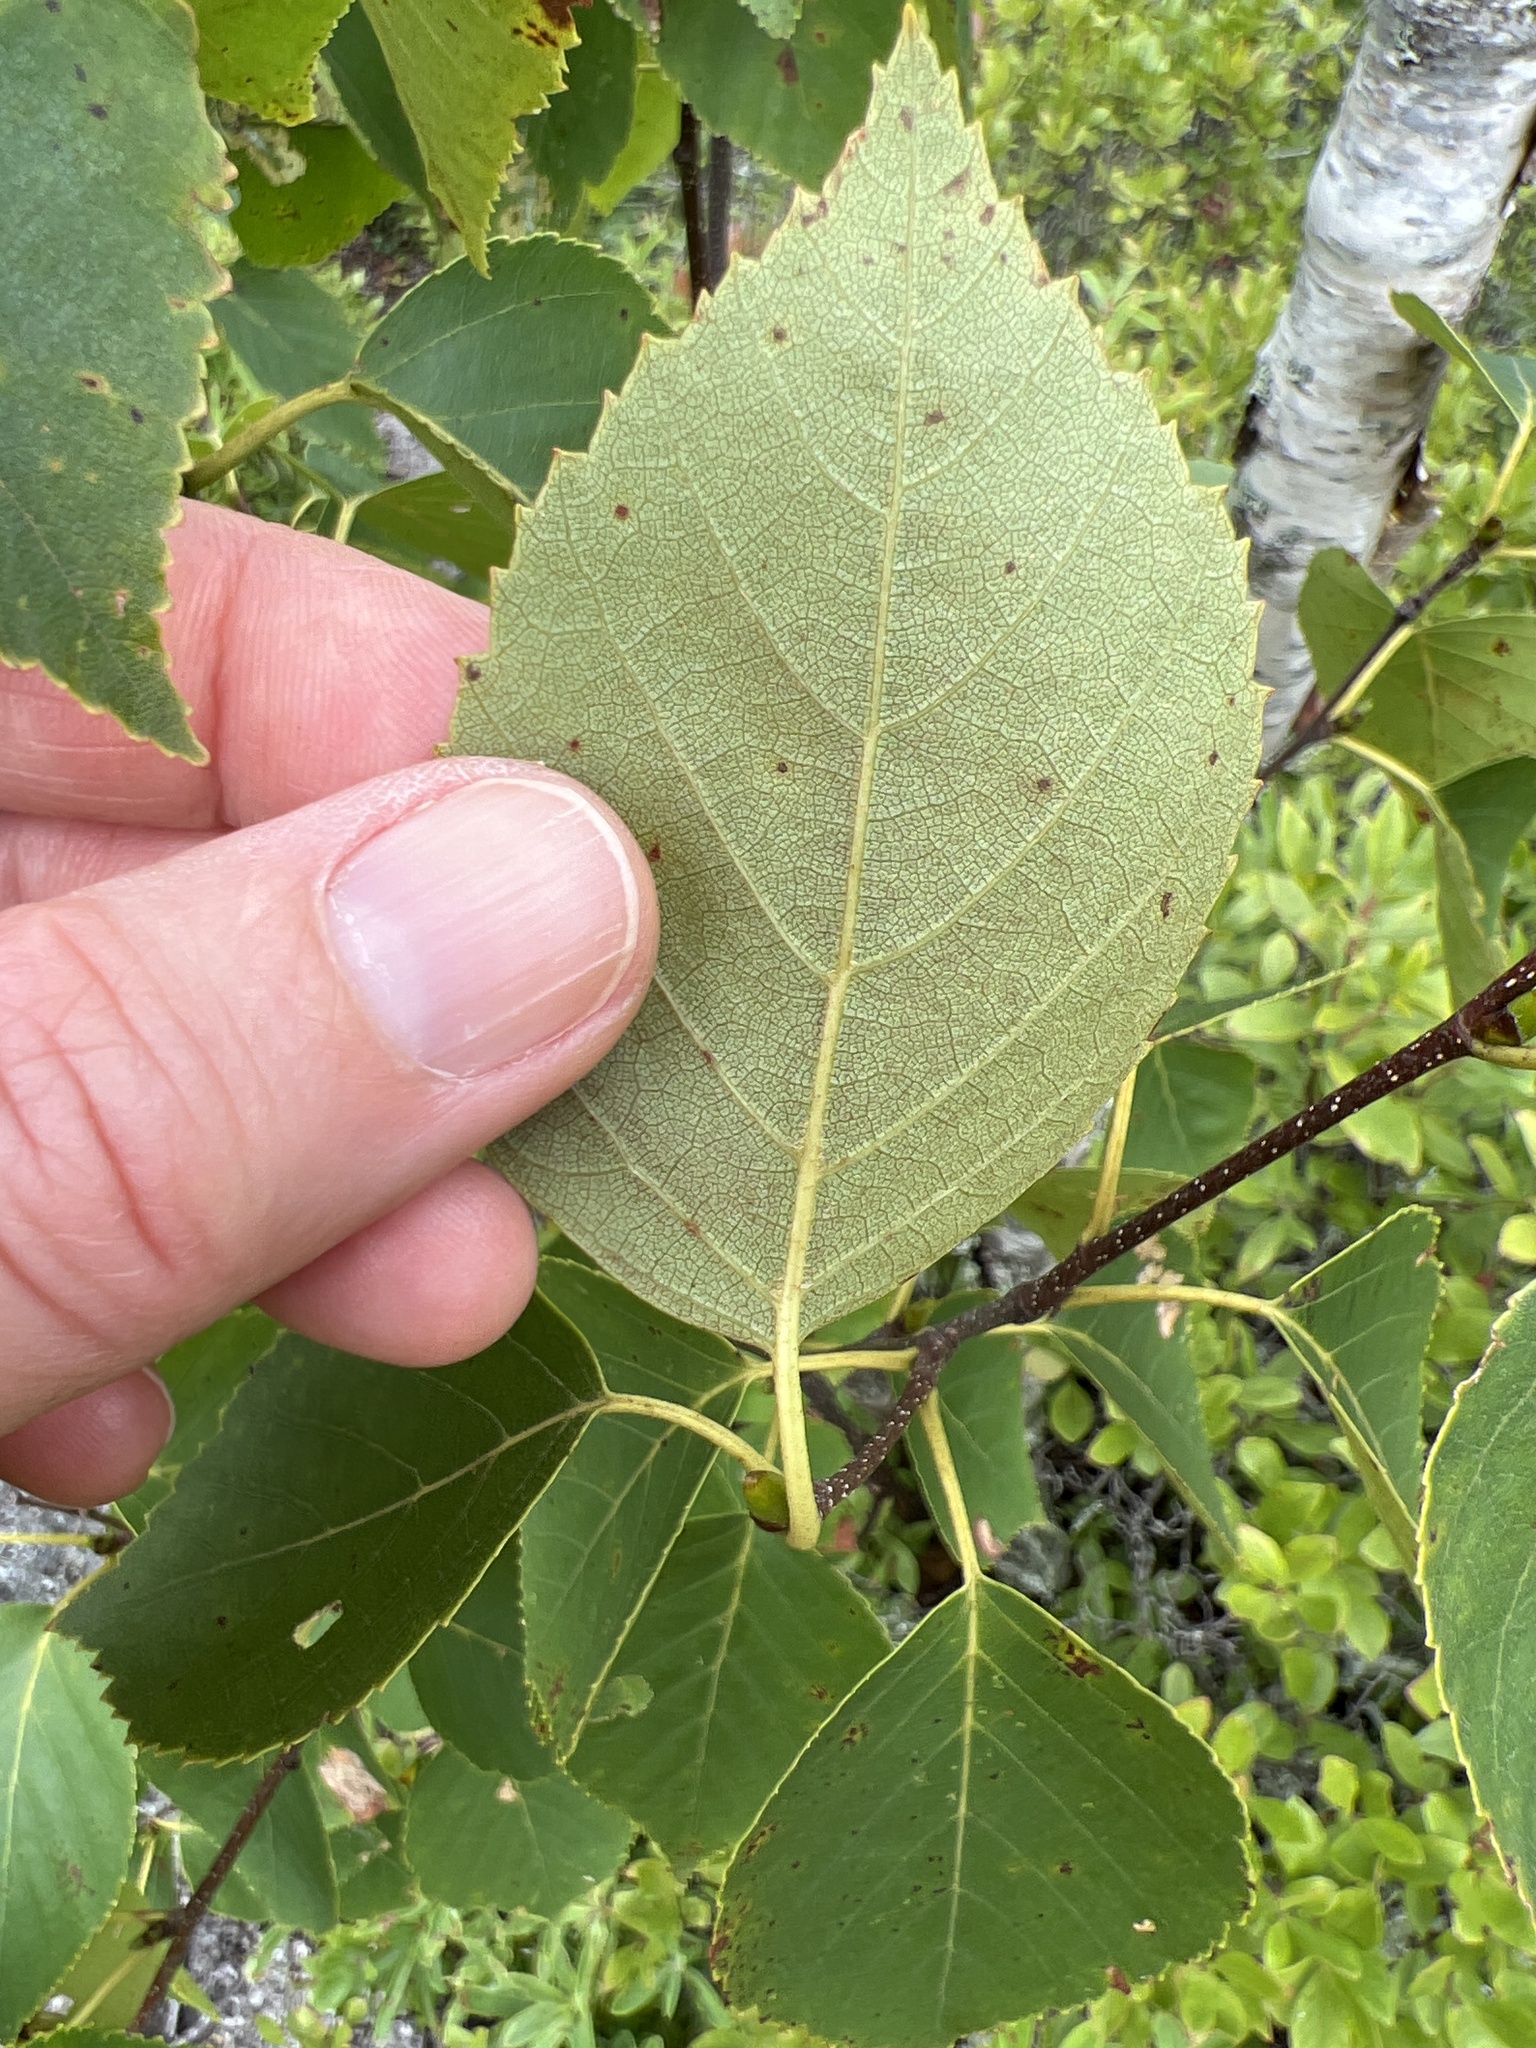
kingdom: Plantae
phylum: Tracheophyta
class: Magnoliopsida
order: Fagales
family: Betulaceae
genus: Betula
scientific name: Betula papyrifera
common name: Paper birch
